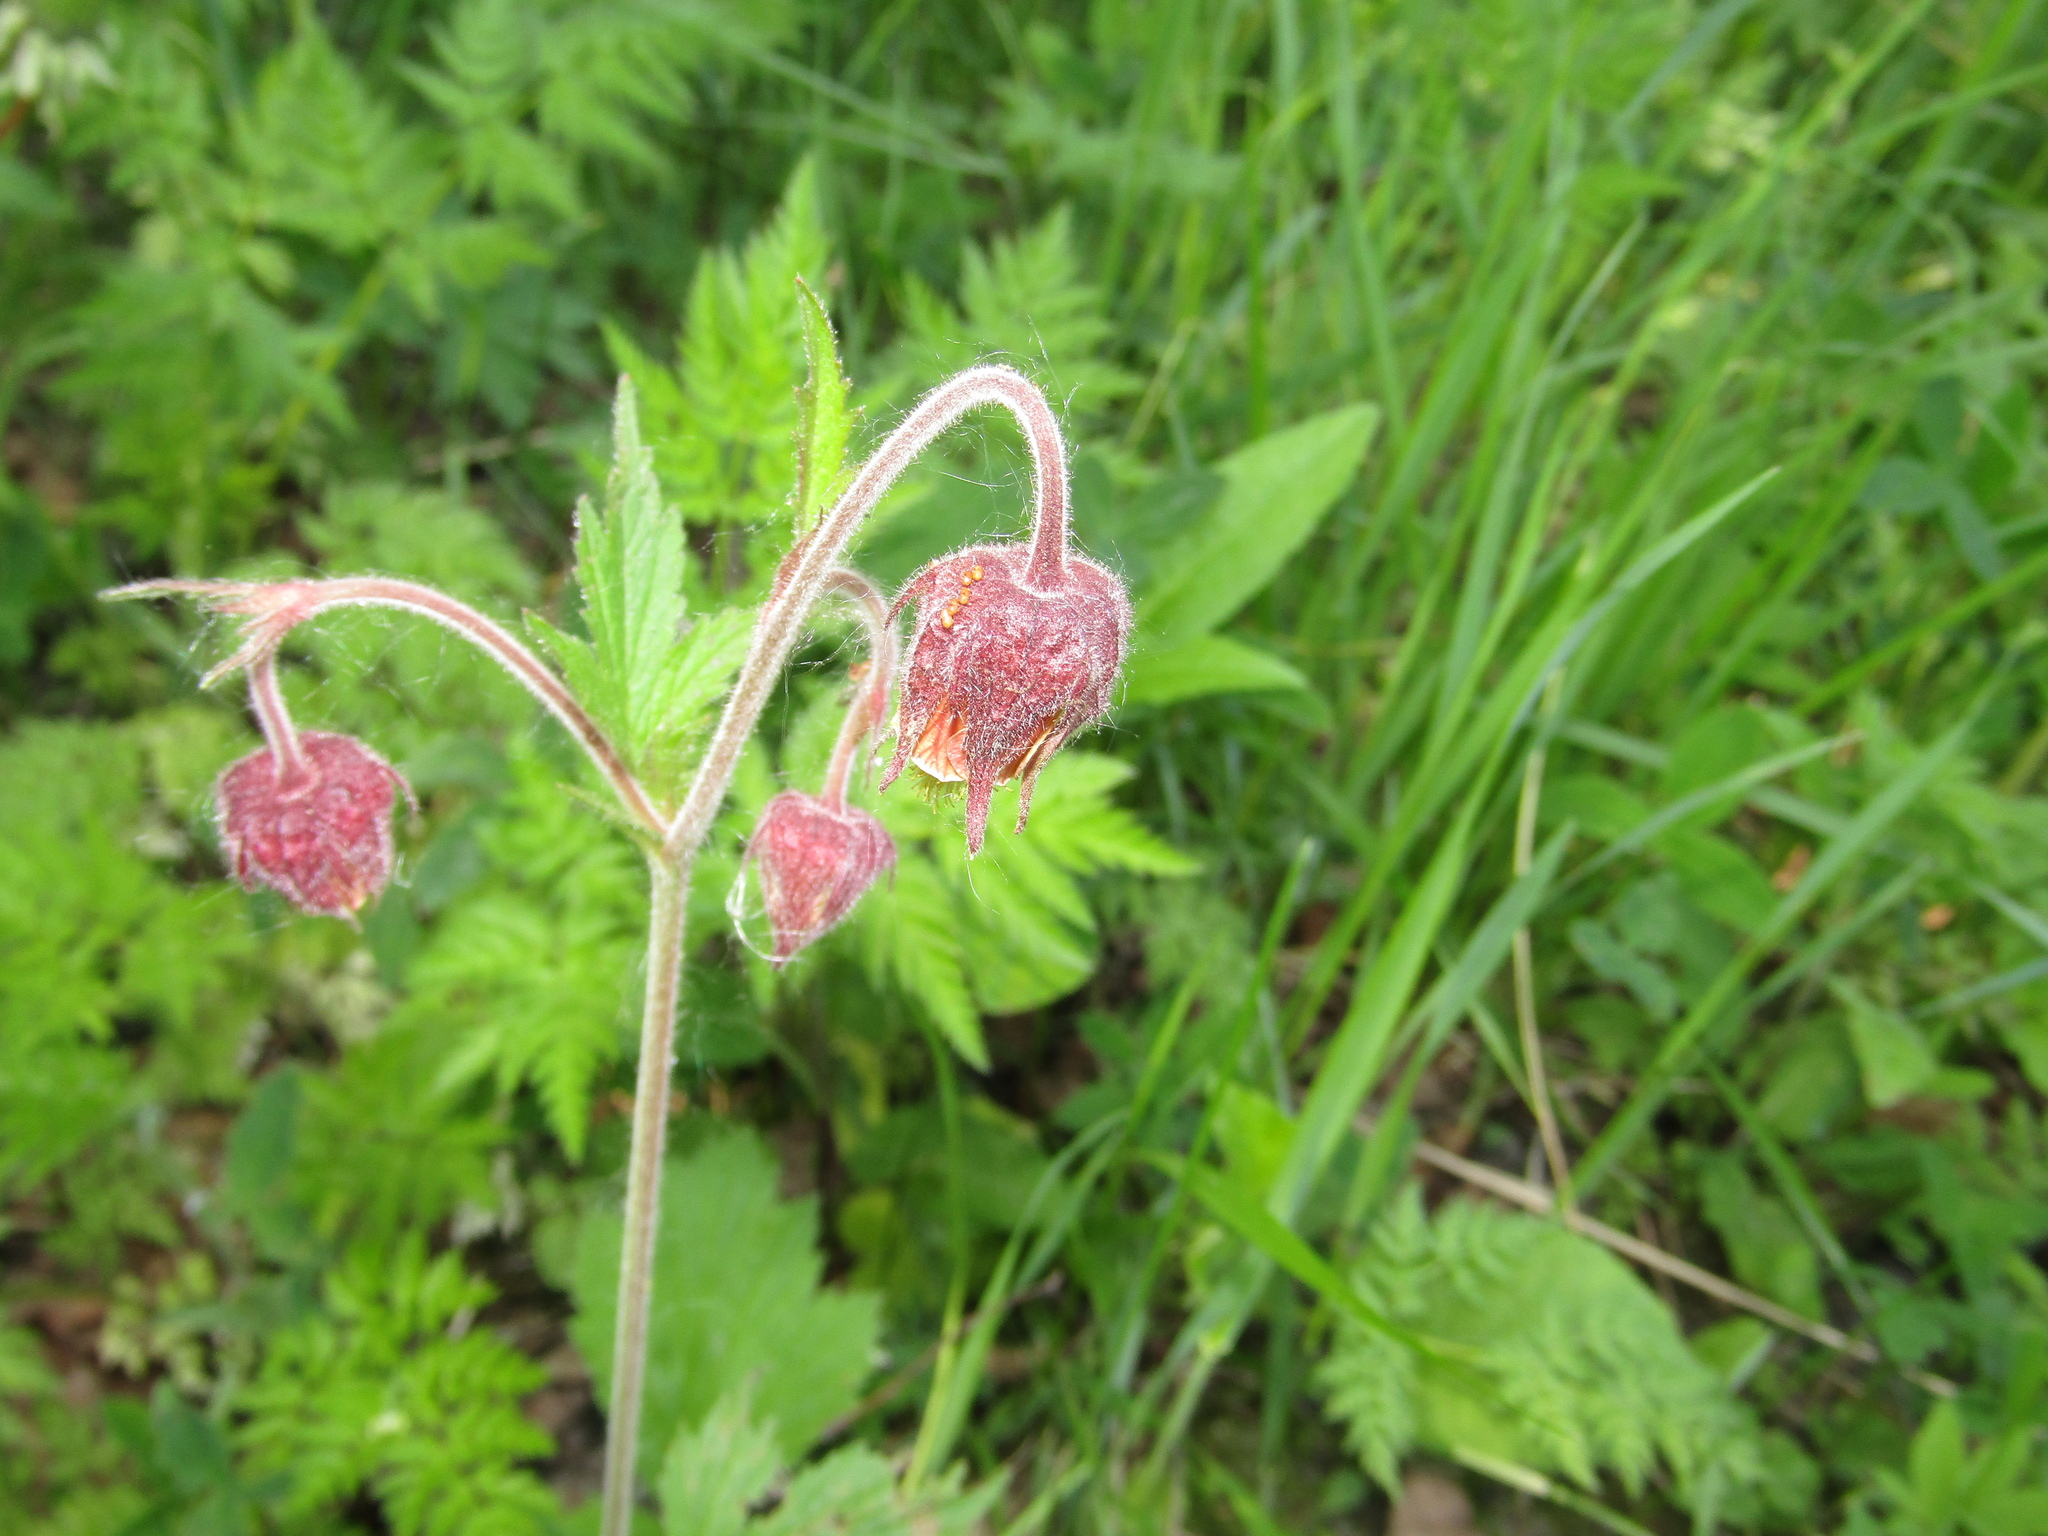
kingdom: Plantae
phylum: Tracheophyta
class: Magnoliopsida
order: Rosales
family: Rosaceae
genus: Geum
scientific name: Geum rivale
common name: Water avens
